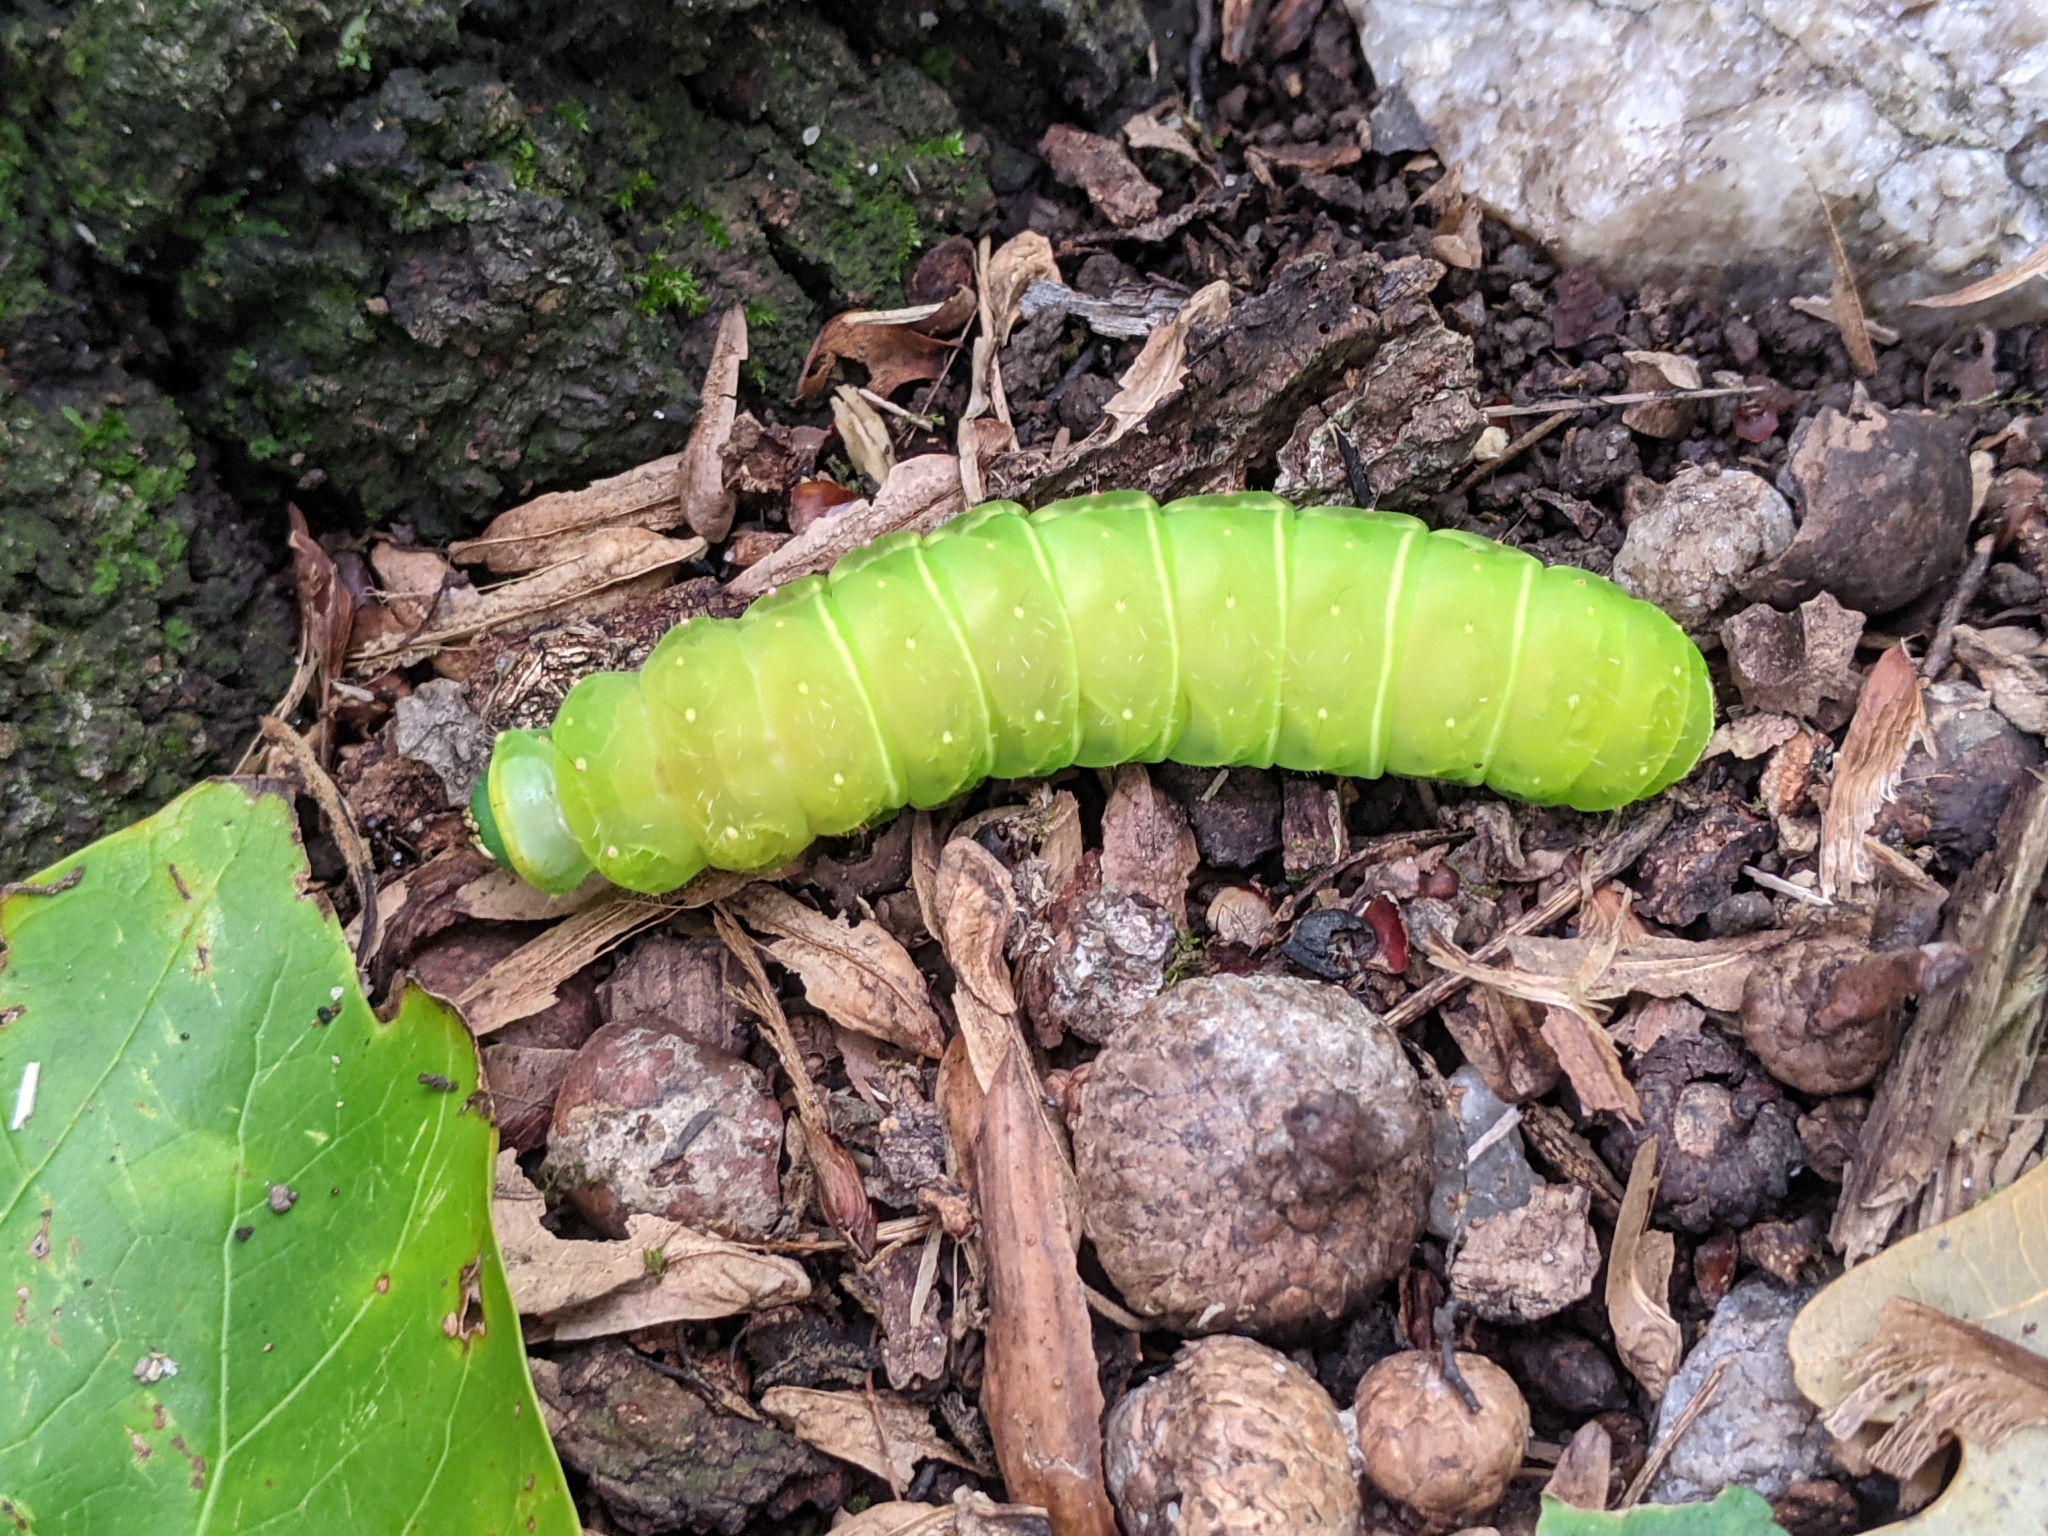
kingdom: Animalia
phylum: Arthropoda
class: Insecta
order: Lepidoptera
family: Saturniidae
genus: Actias
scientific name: Actias luna
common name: Luna moth
